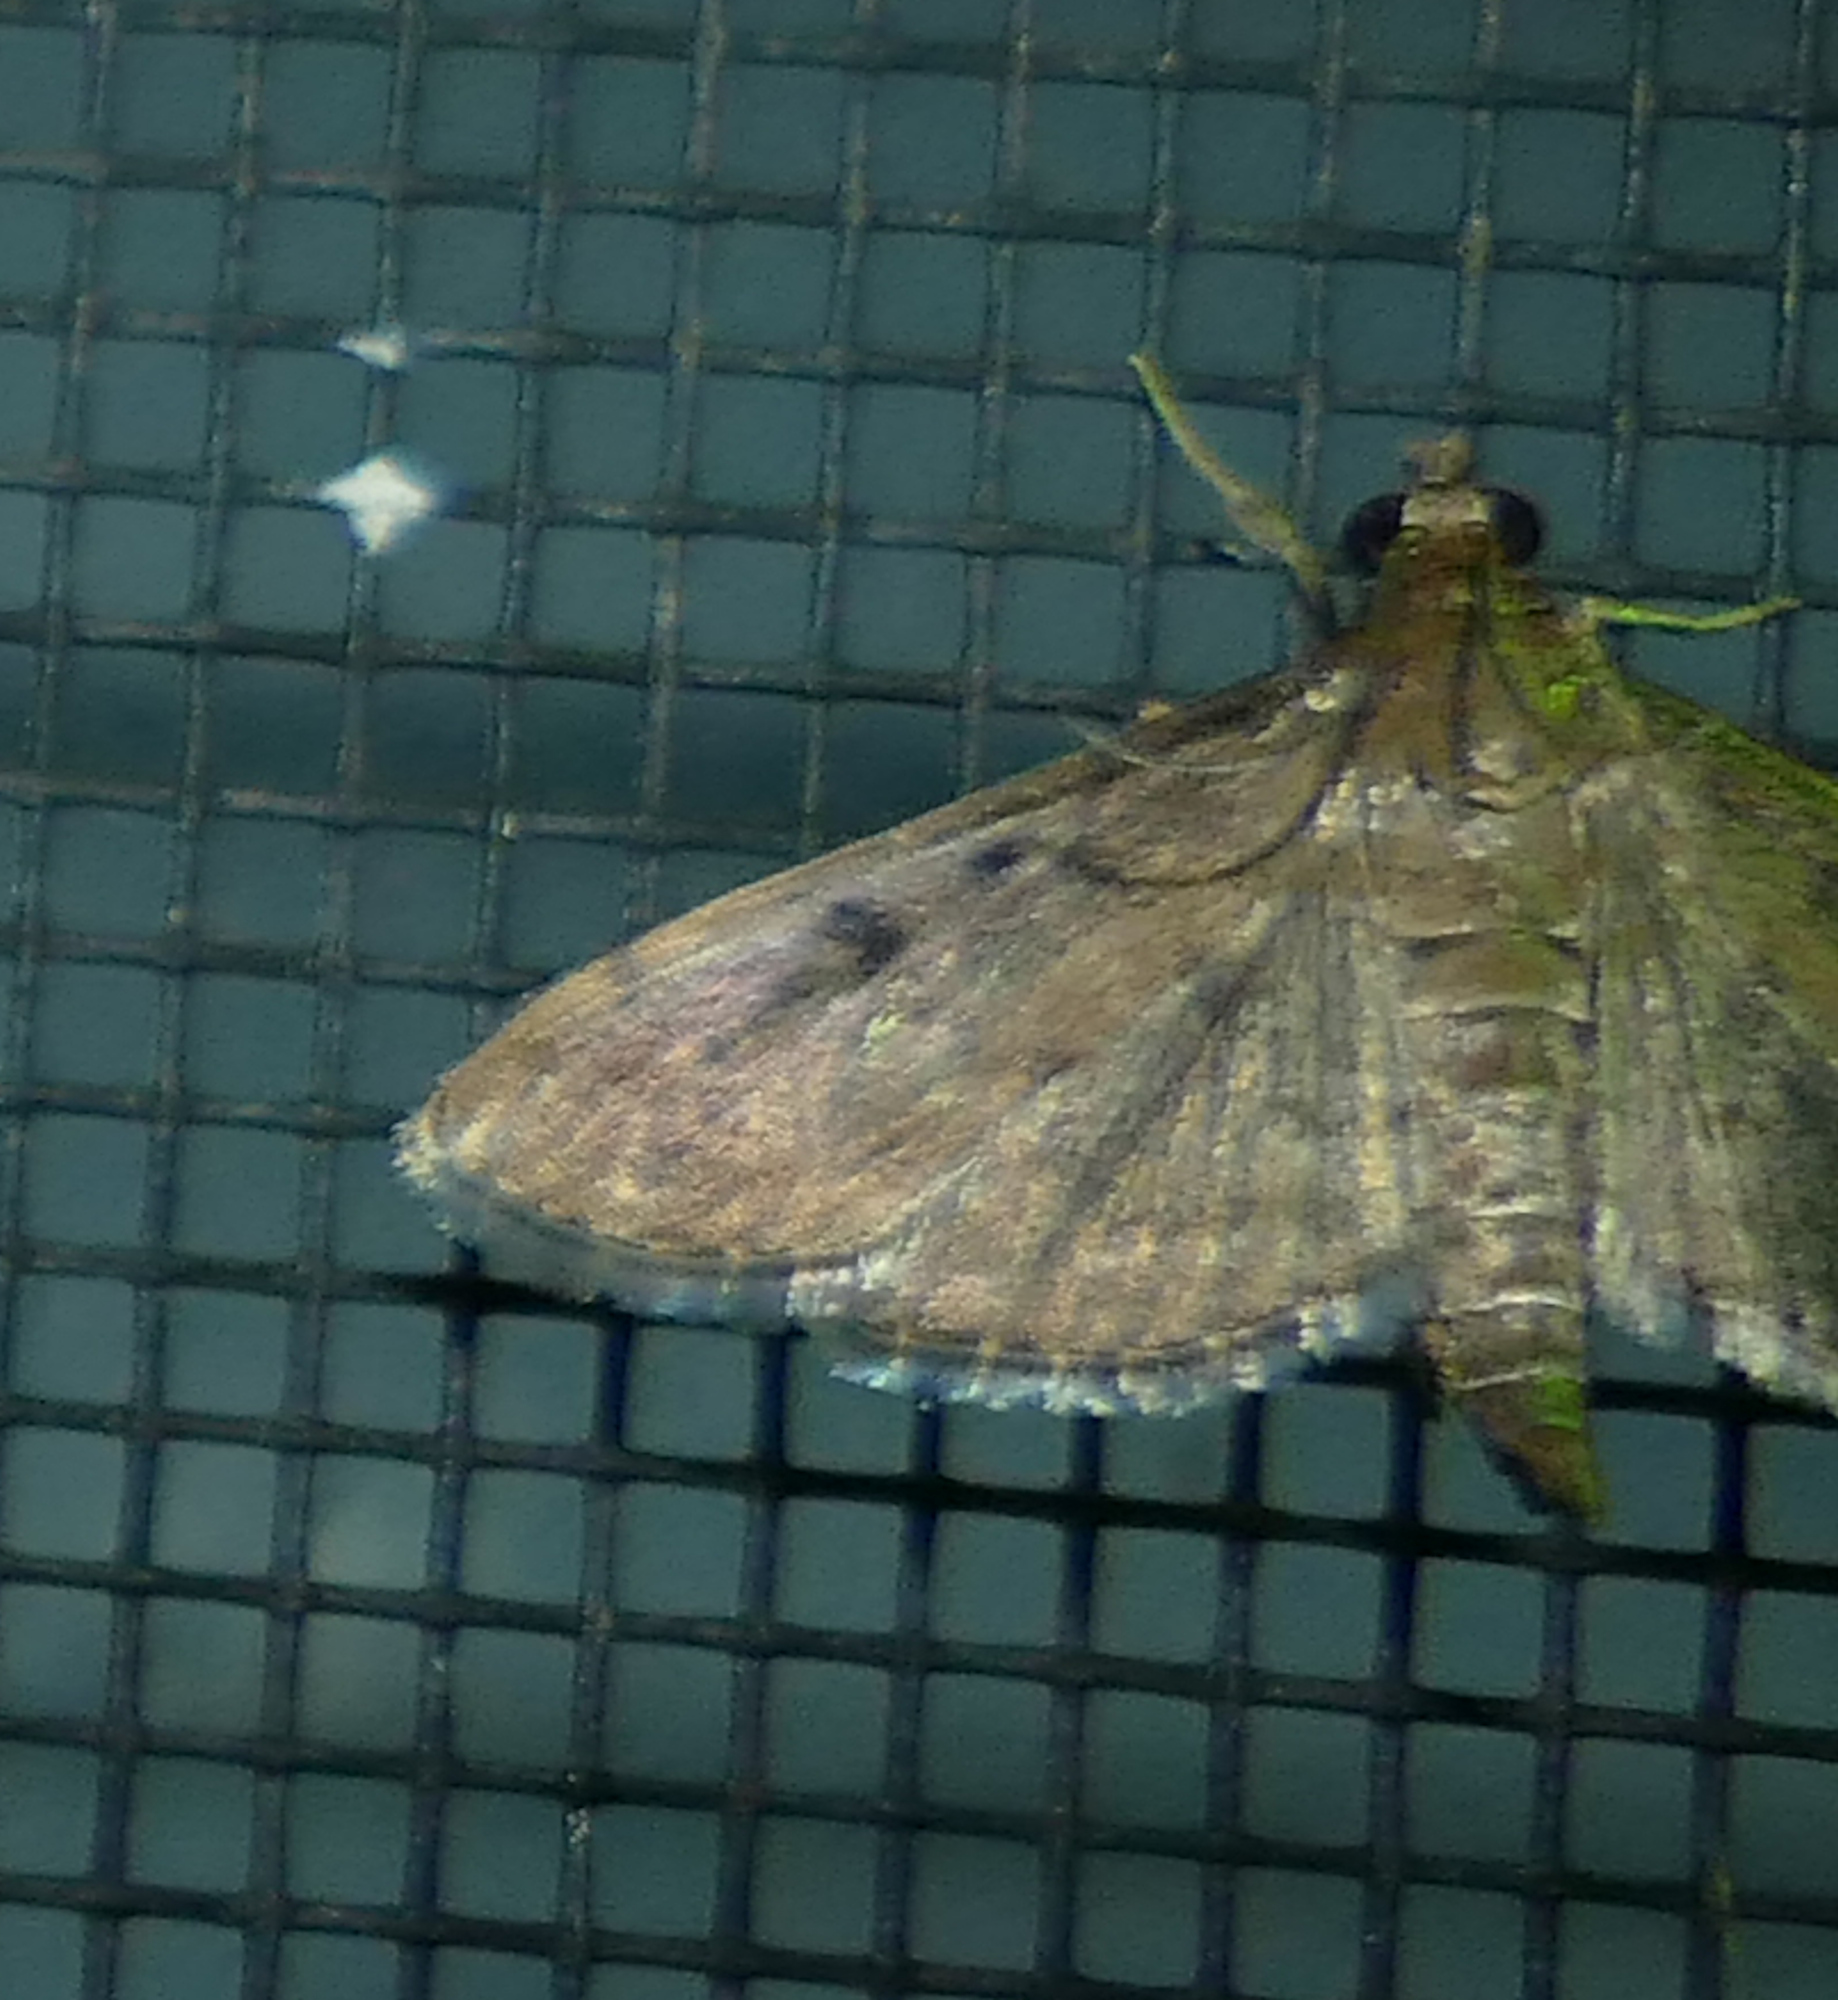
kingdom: Animalia
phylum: Arthropoda
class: Insecta
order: Lepidoptera
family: Crambidae
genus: Herpetogramma
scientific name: Herpetogramma phaeopteralis
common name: Dusky herpetogramma moth
